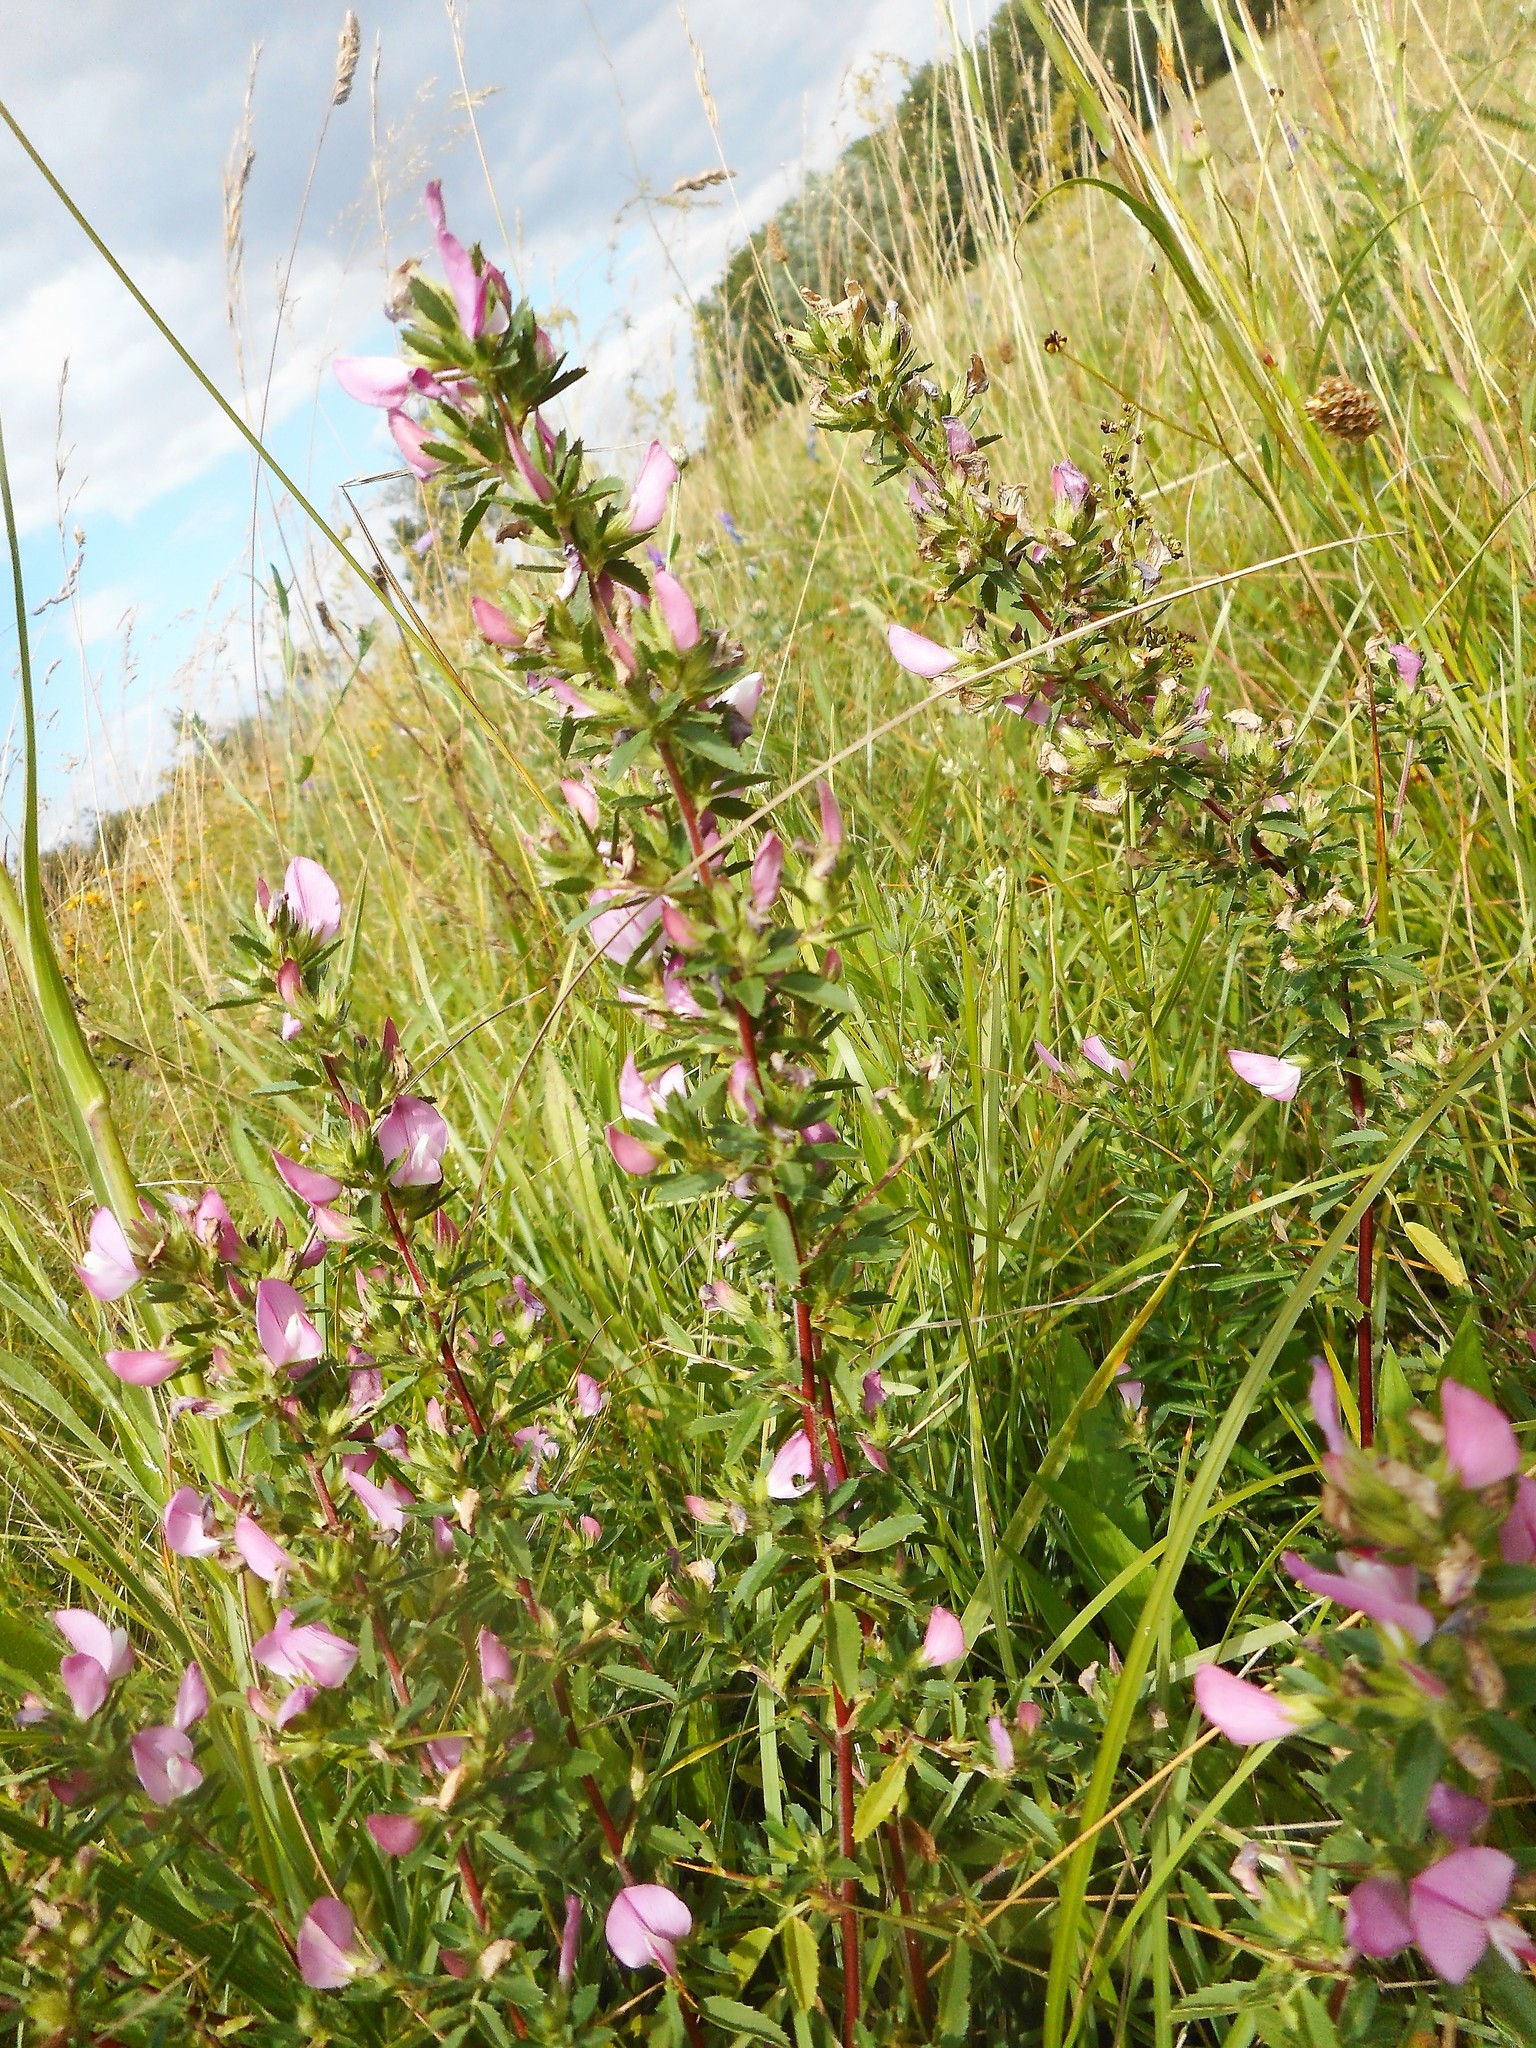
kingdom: Plantae
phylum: Tracheophyta
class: Magnoliopsida
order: Fabales
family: Fabaceae
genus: Ononis
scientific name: Ononis spinosa
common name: Spiny restharrow
